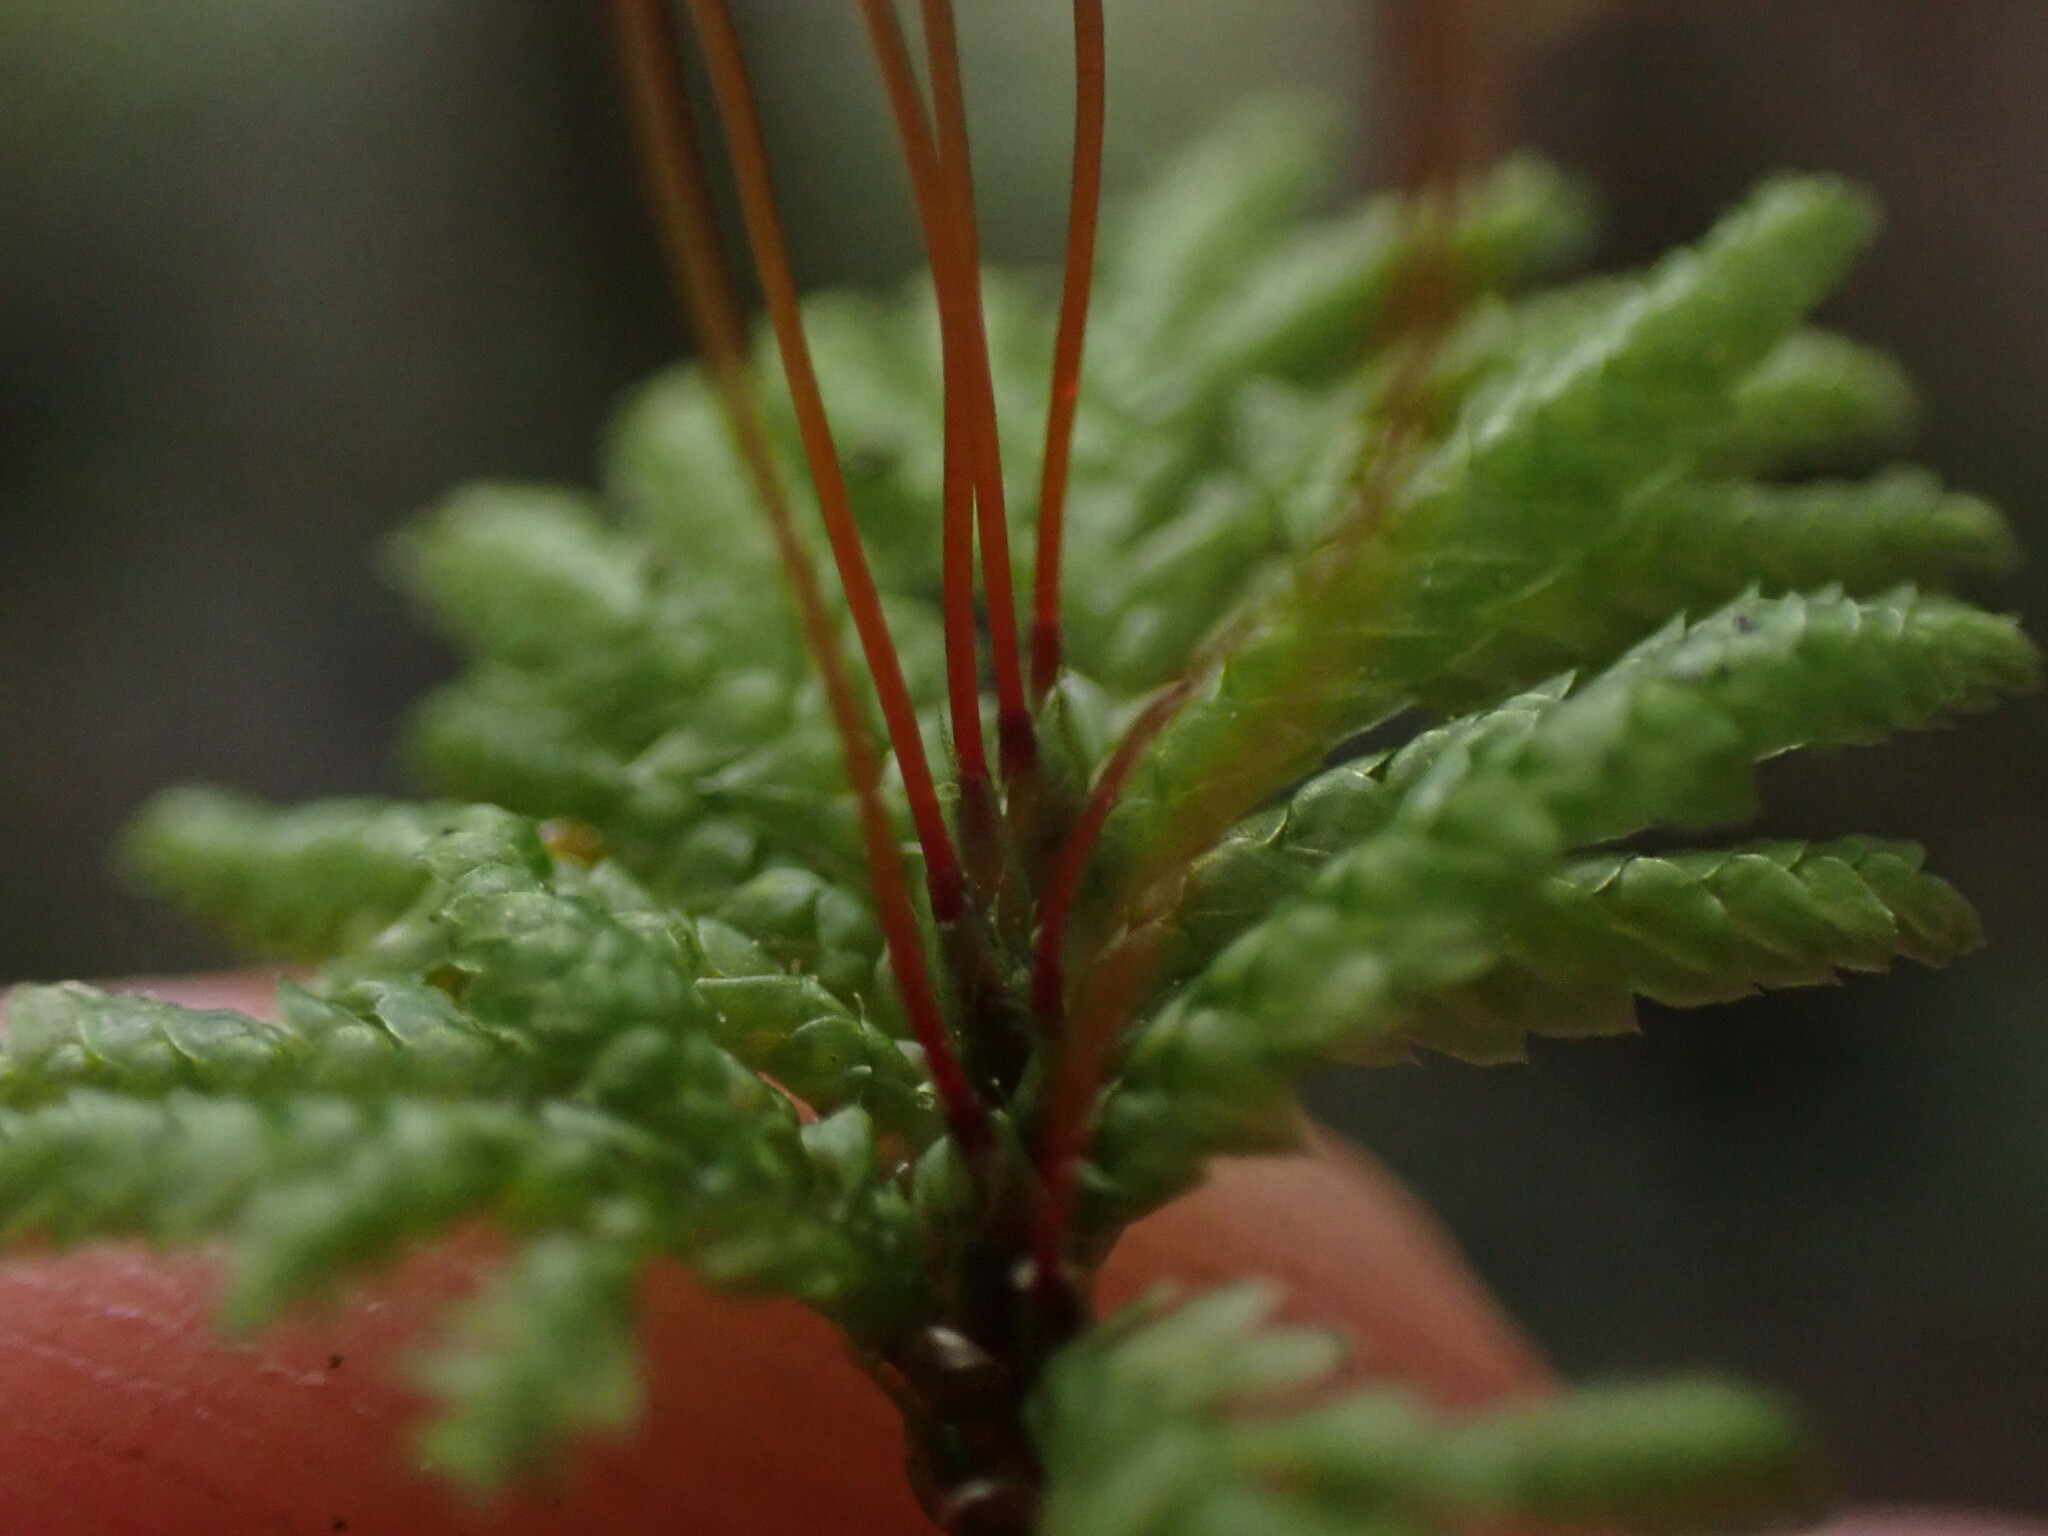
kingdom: Plantae
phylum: Bryophyta
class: Bryopsida
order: Hypopterygiales
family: Hypopterygiaceae
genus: Hypopterygium
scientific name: Hypopterygium flavolimbatum
